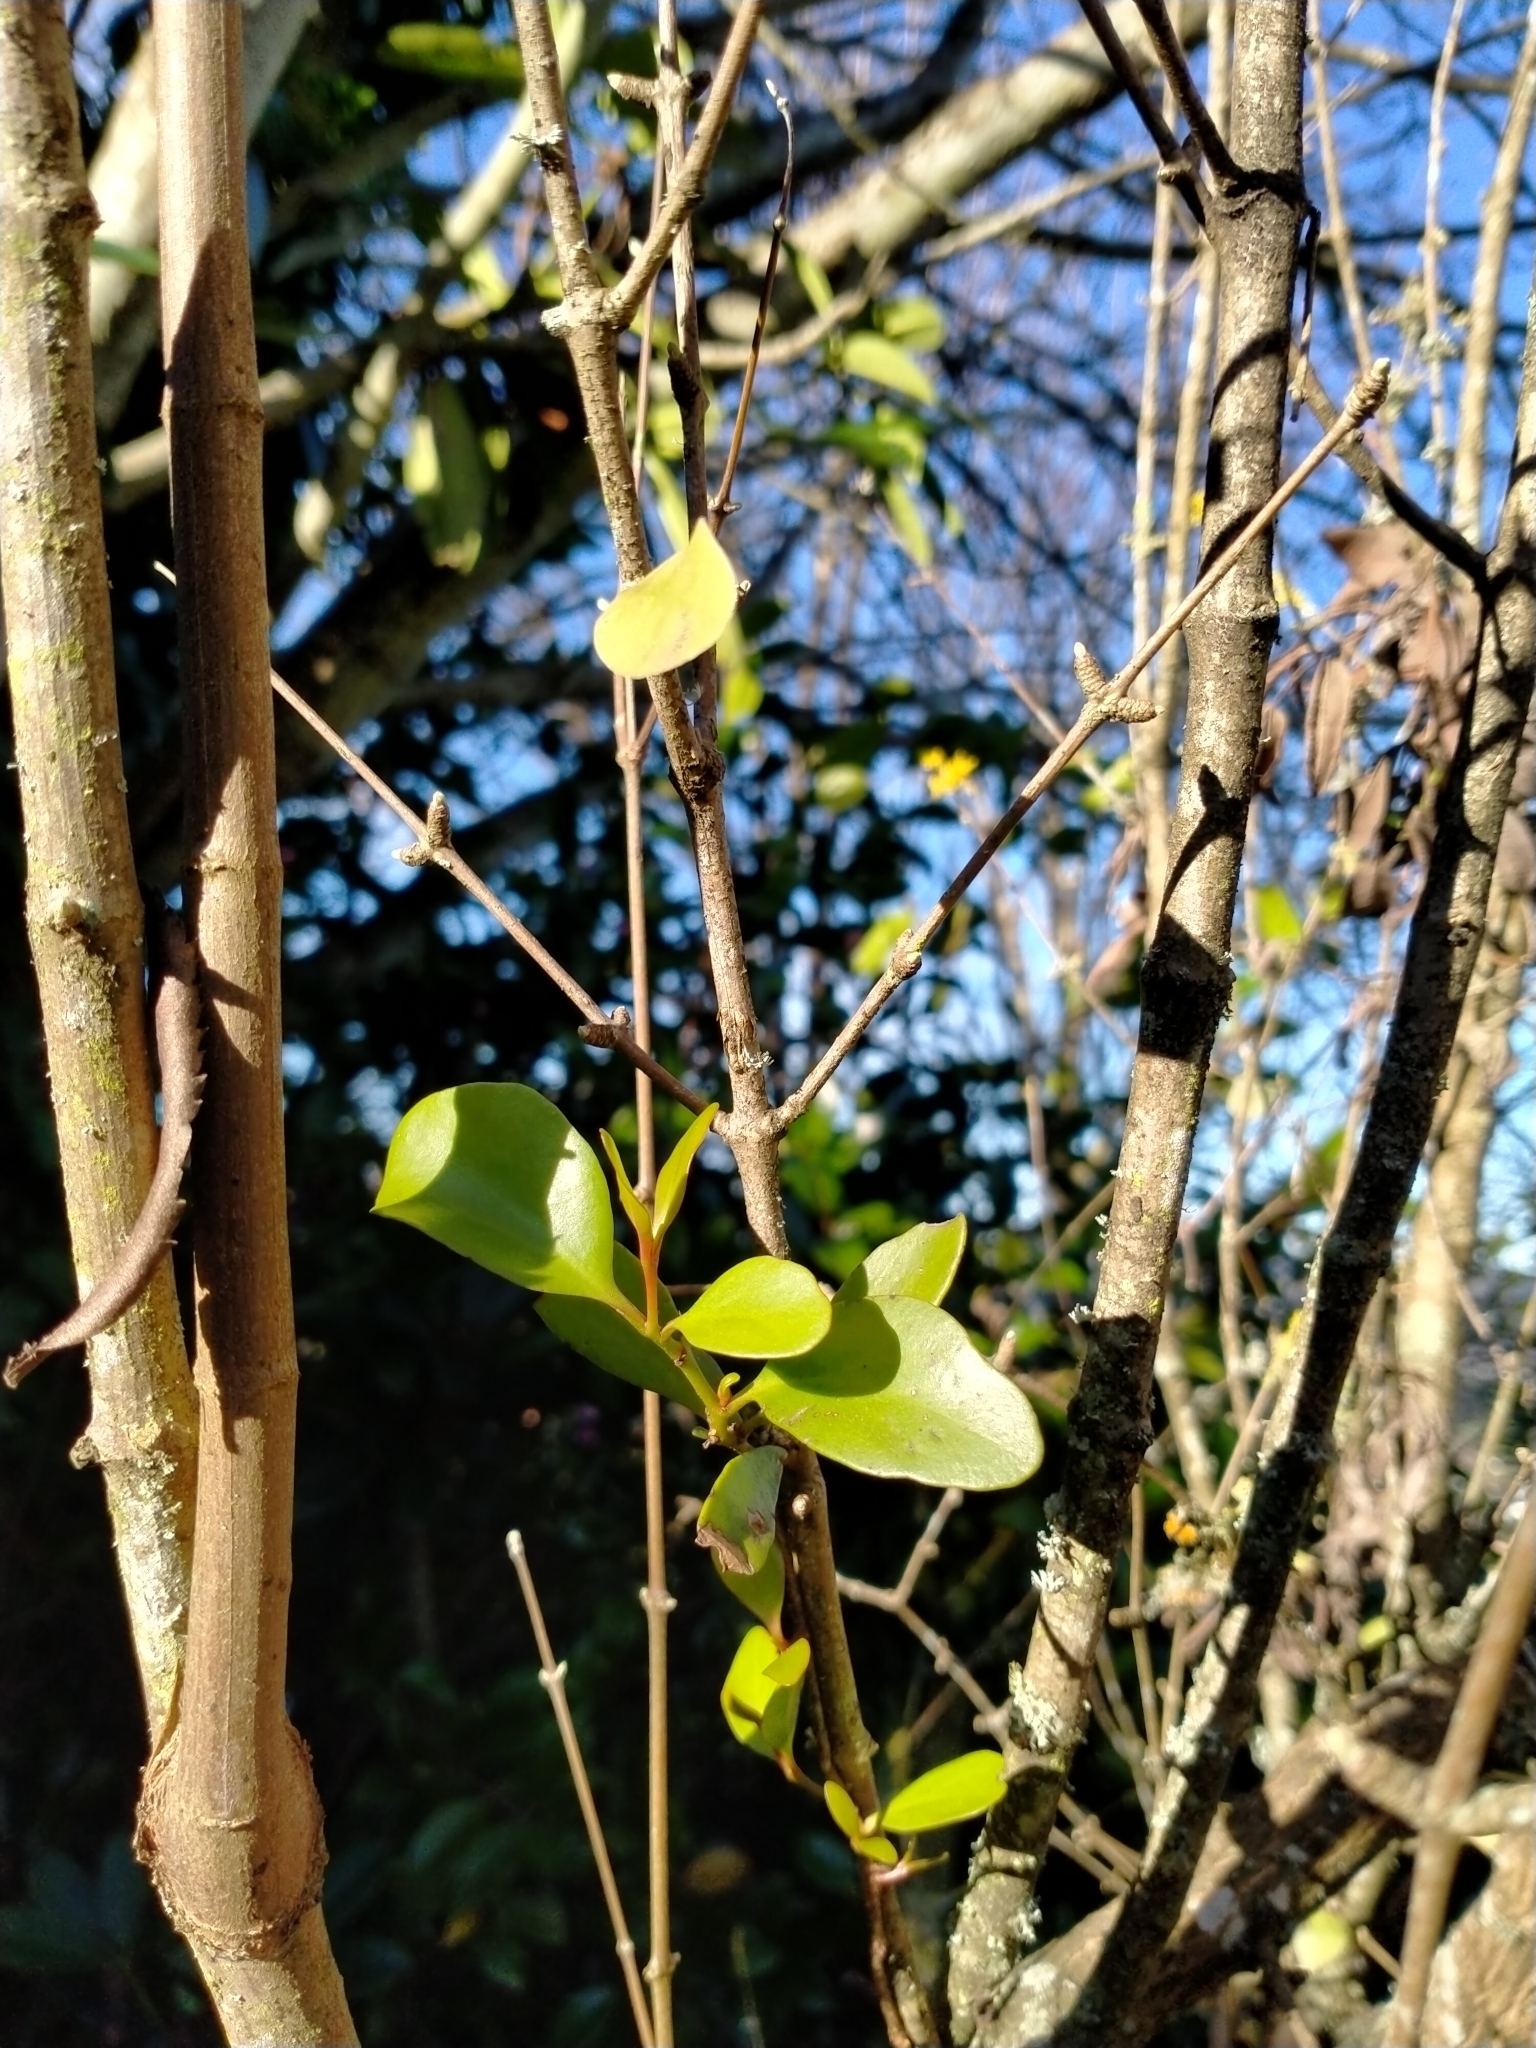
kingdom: Plantae
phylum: Tracheophyta
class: Magnoliopsida
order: Santalales
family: Loranthaceae
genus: Ileostylus
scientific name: Ileostylus micranthus
